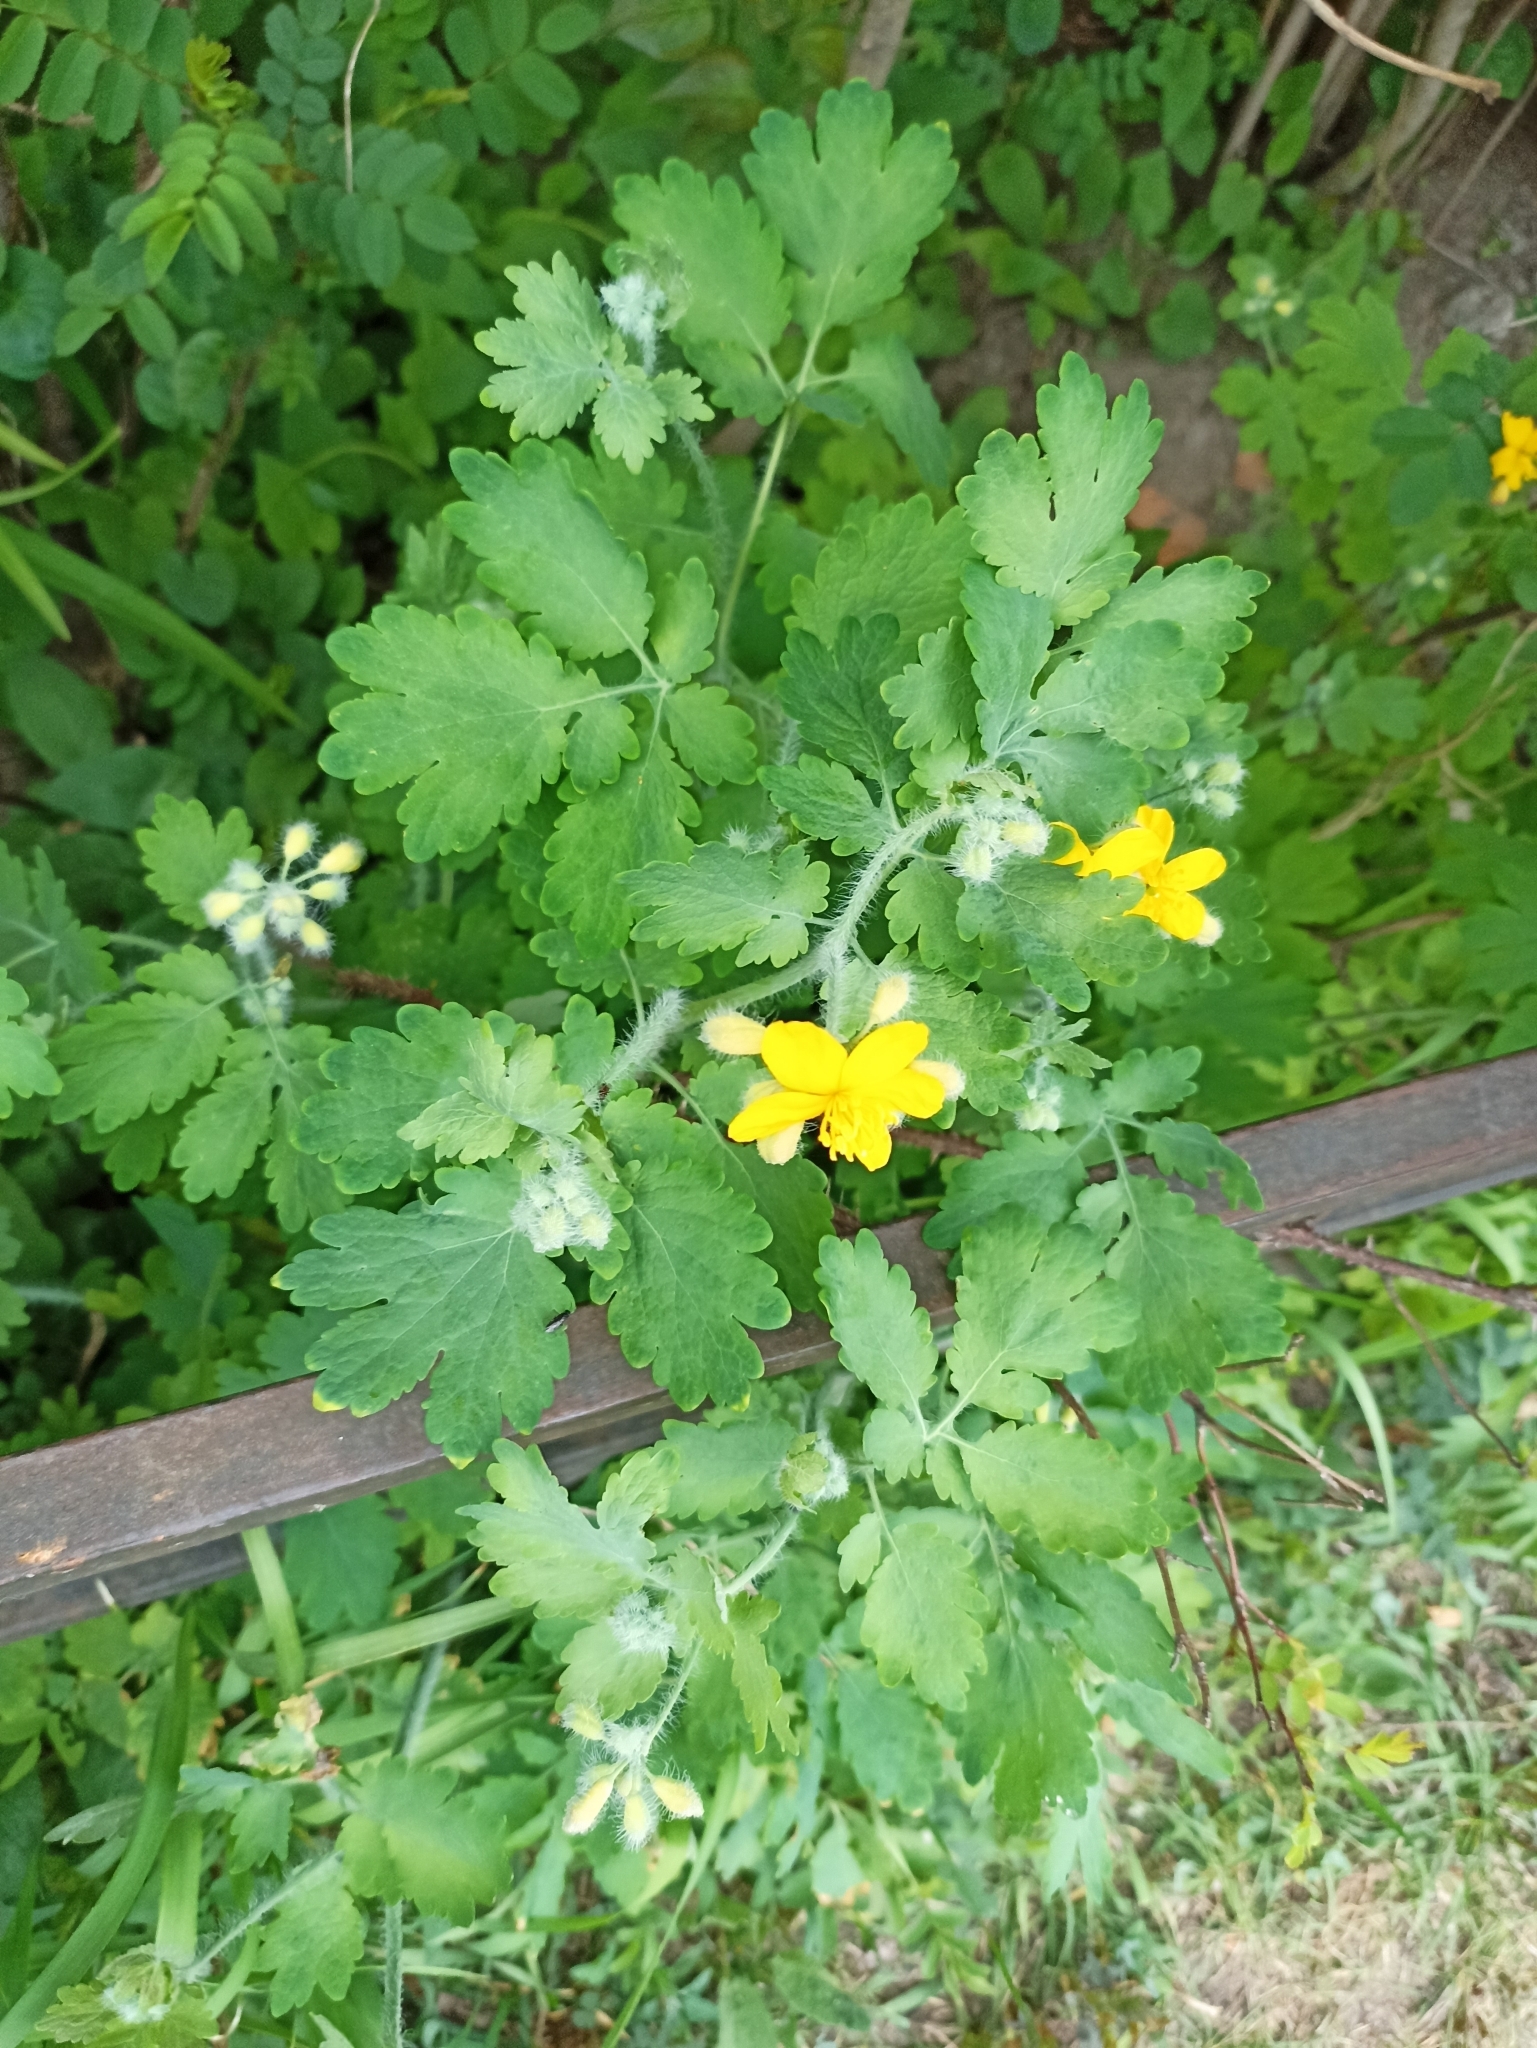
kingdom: Plantae
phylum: Tracheophyta
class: Magnoliopsida
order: Ranunculales
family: Papaveraceae
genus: Chelidonium
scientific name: Chelidonium majus
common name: Greater celandine
